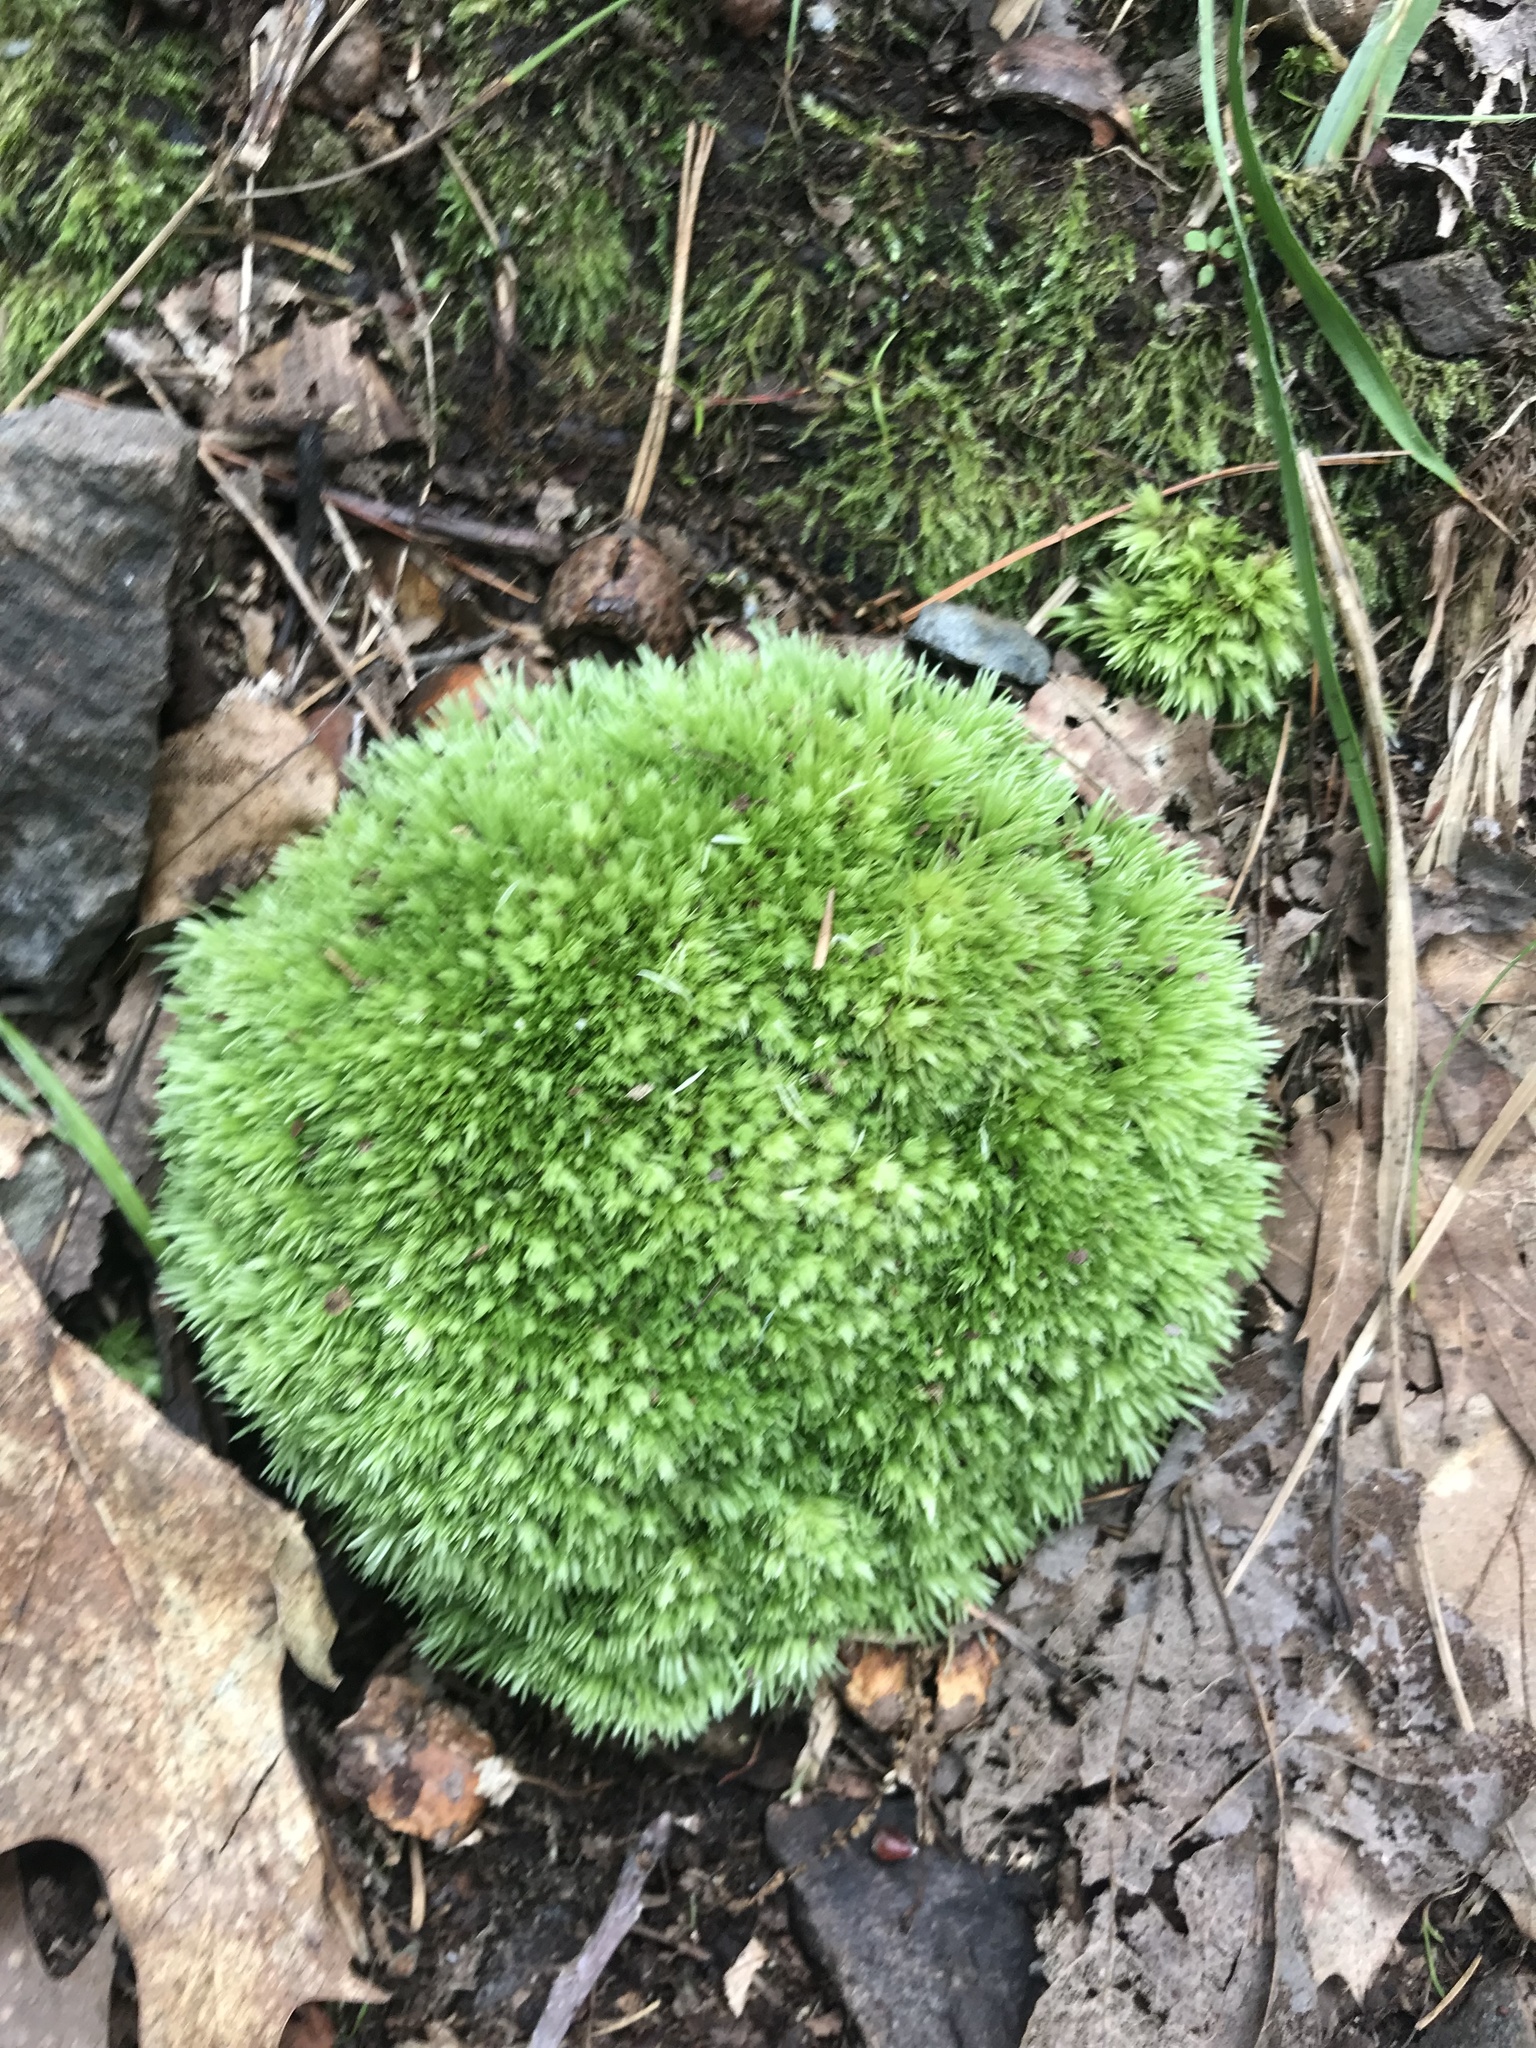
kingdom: Plantae
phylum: Bryophyta
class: Bryopsida
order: Dicranales
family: Leucobryaceae
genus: Leucobryum
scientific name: Leucobryum glaucum
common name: Large white-moss
